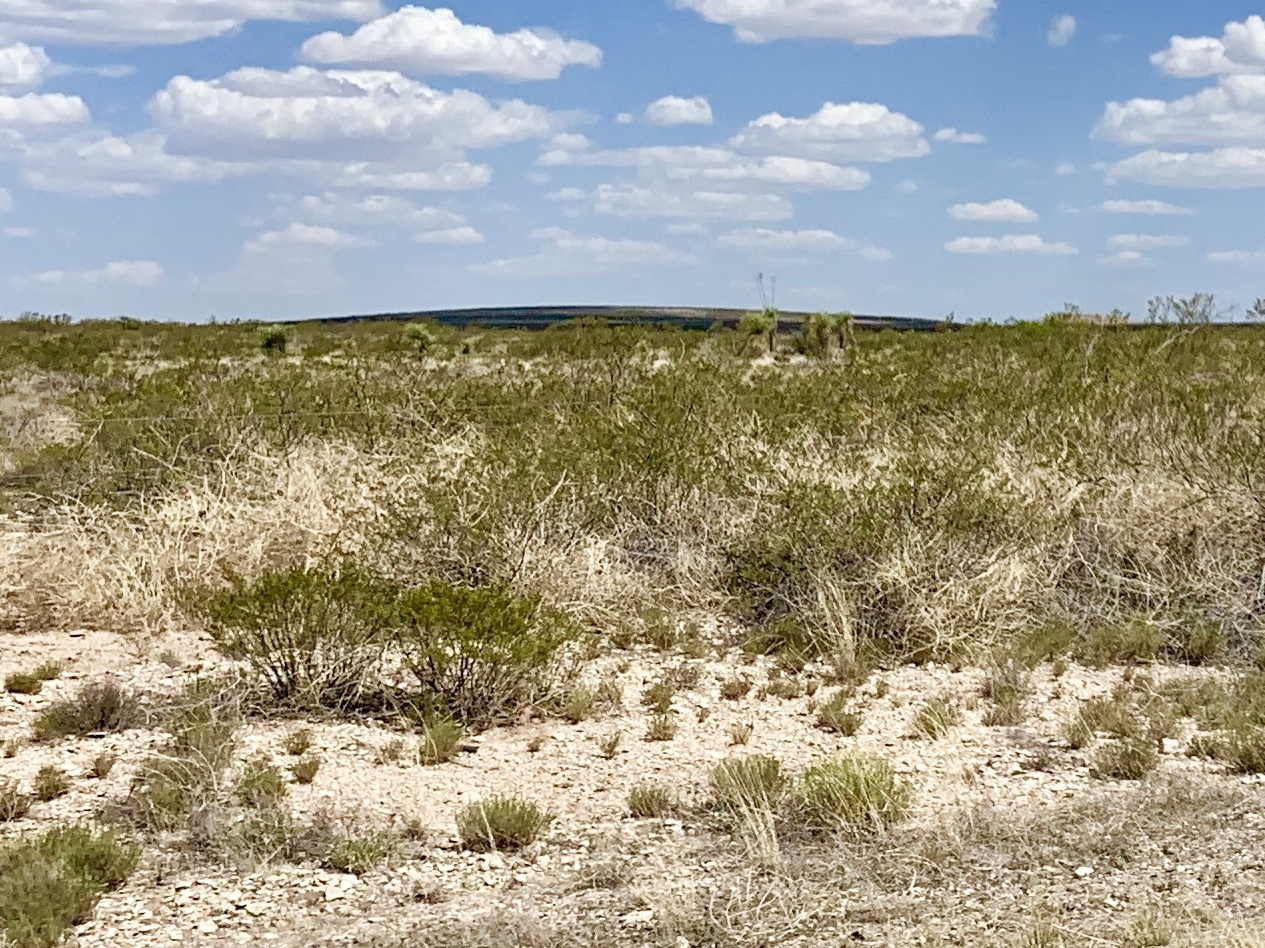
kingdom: Plantae
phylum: Tracheophyta
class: Magnoliopsida
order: Zygophyllales
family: Zygophyllaceae
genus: Larrea
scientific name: Larrea tridentata
